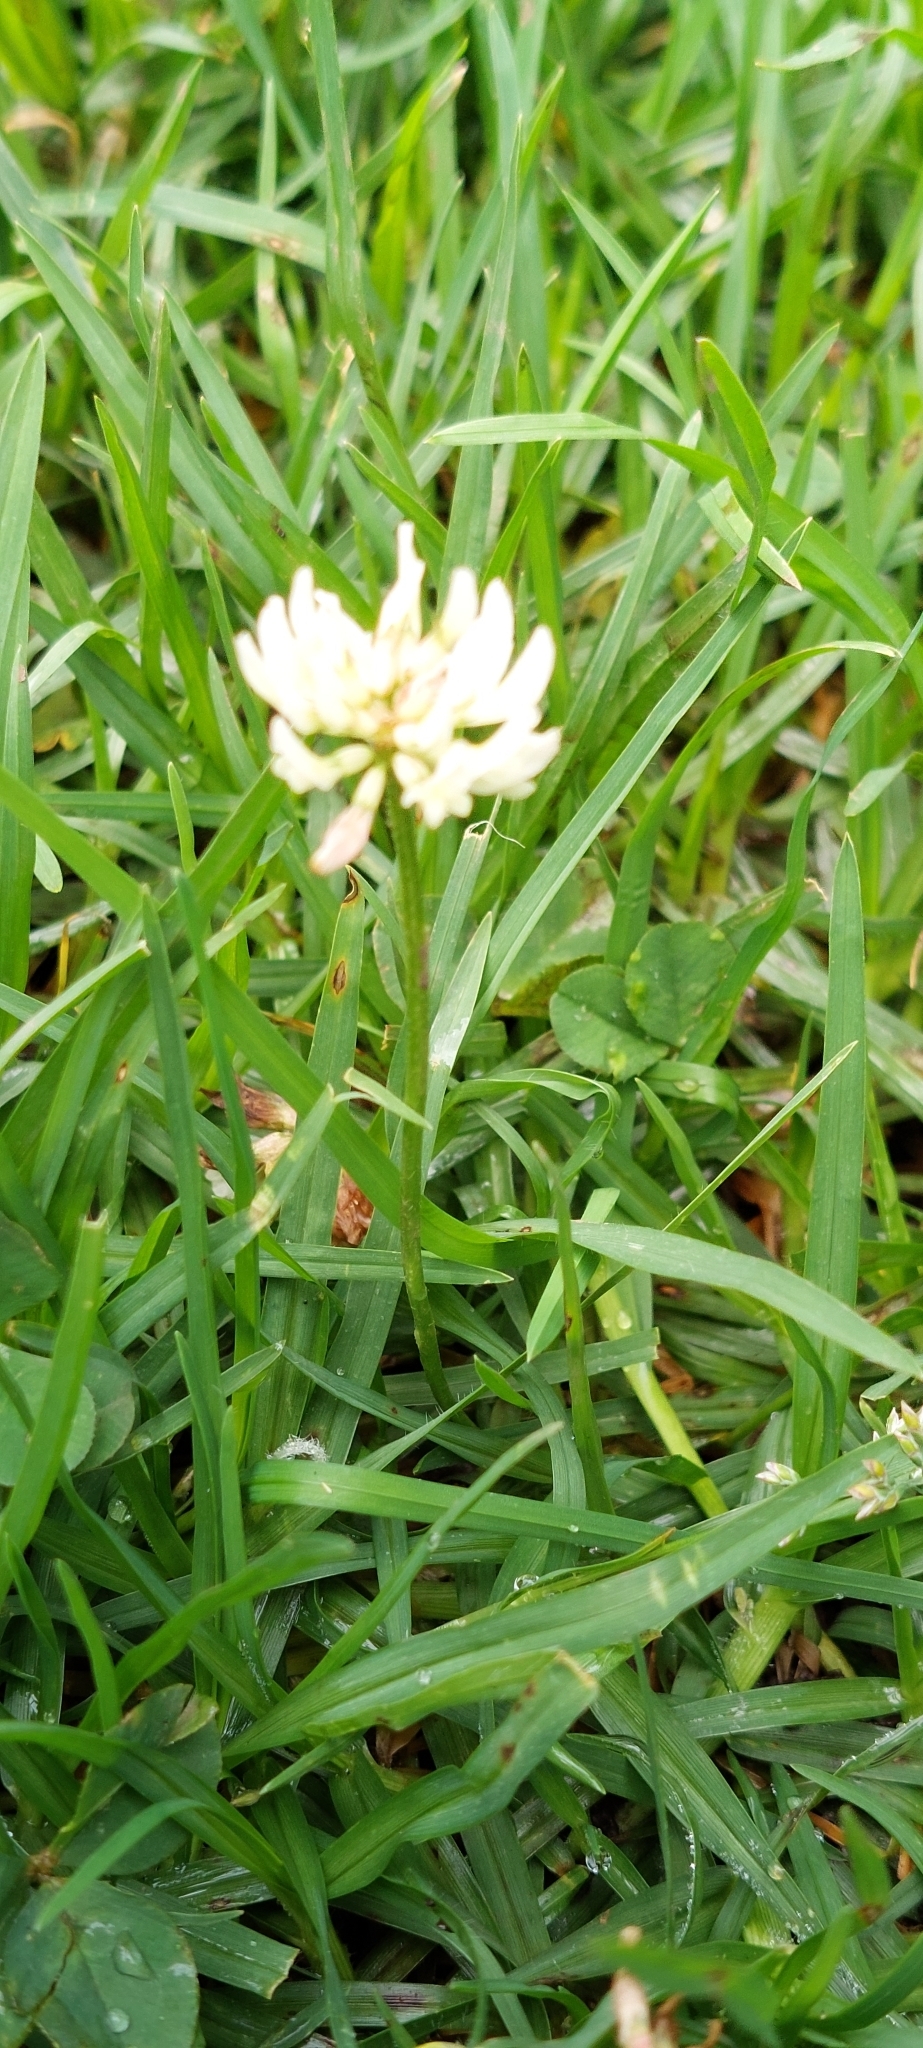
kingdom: Plantae
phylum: Tracheophyta
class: Magnoliopsida
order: Fabales
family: Fabaceae
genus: Trifolium
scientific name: Trifolium repens
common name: White clover
